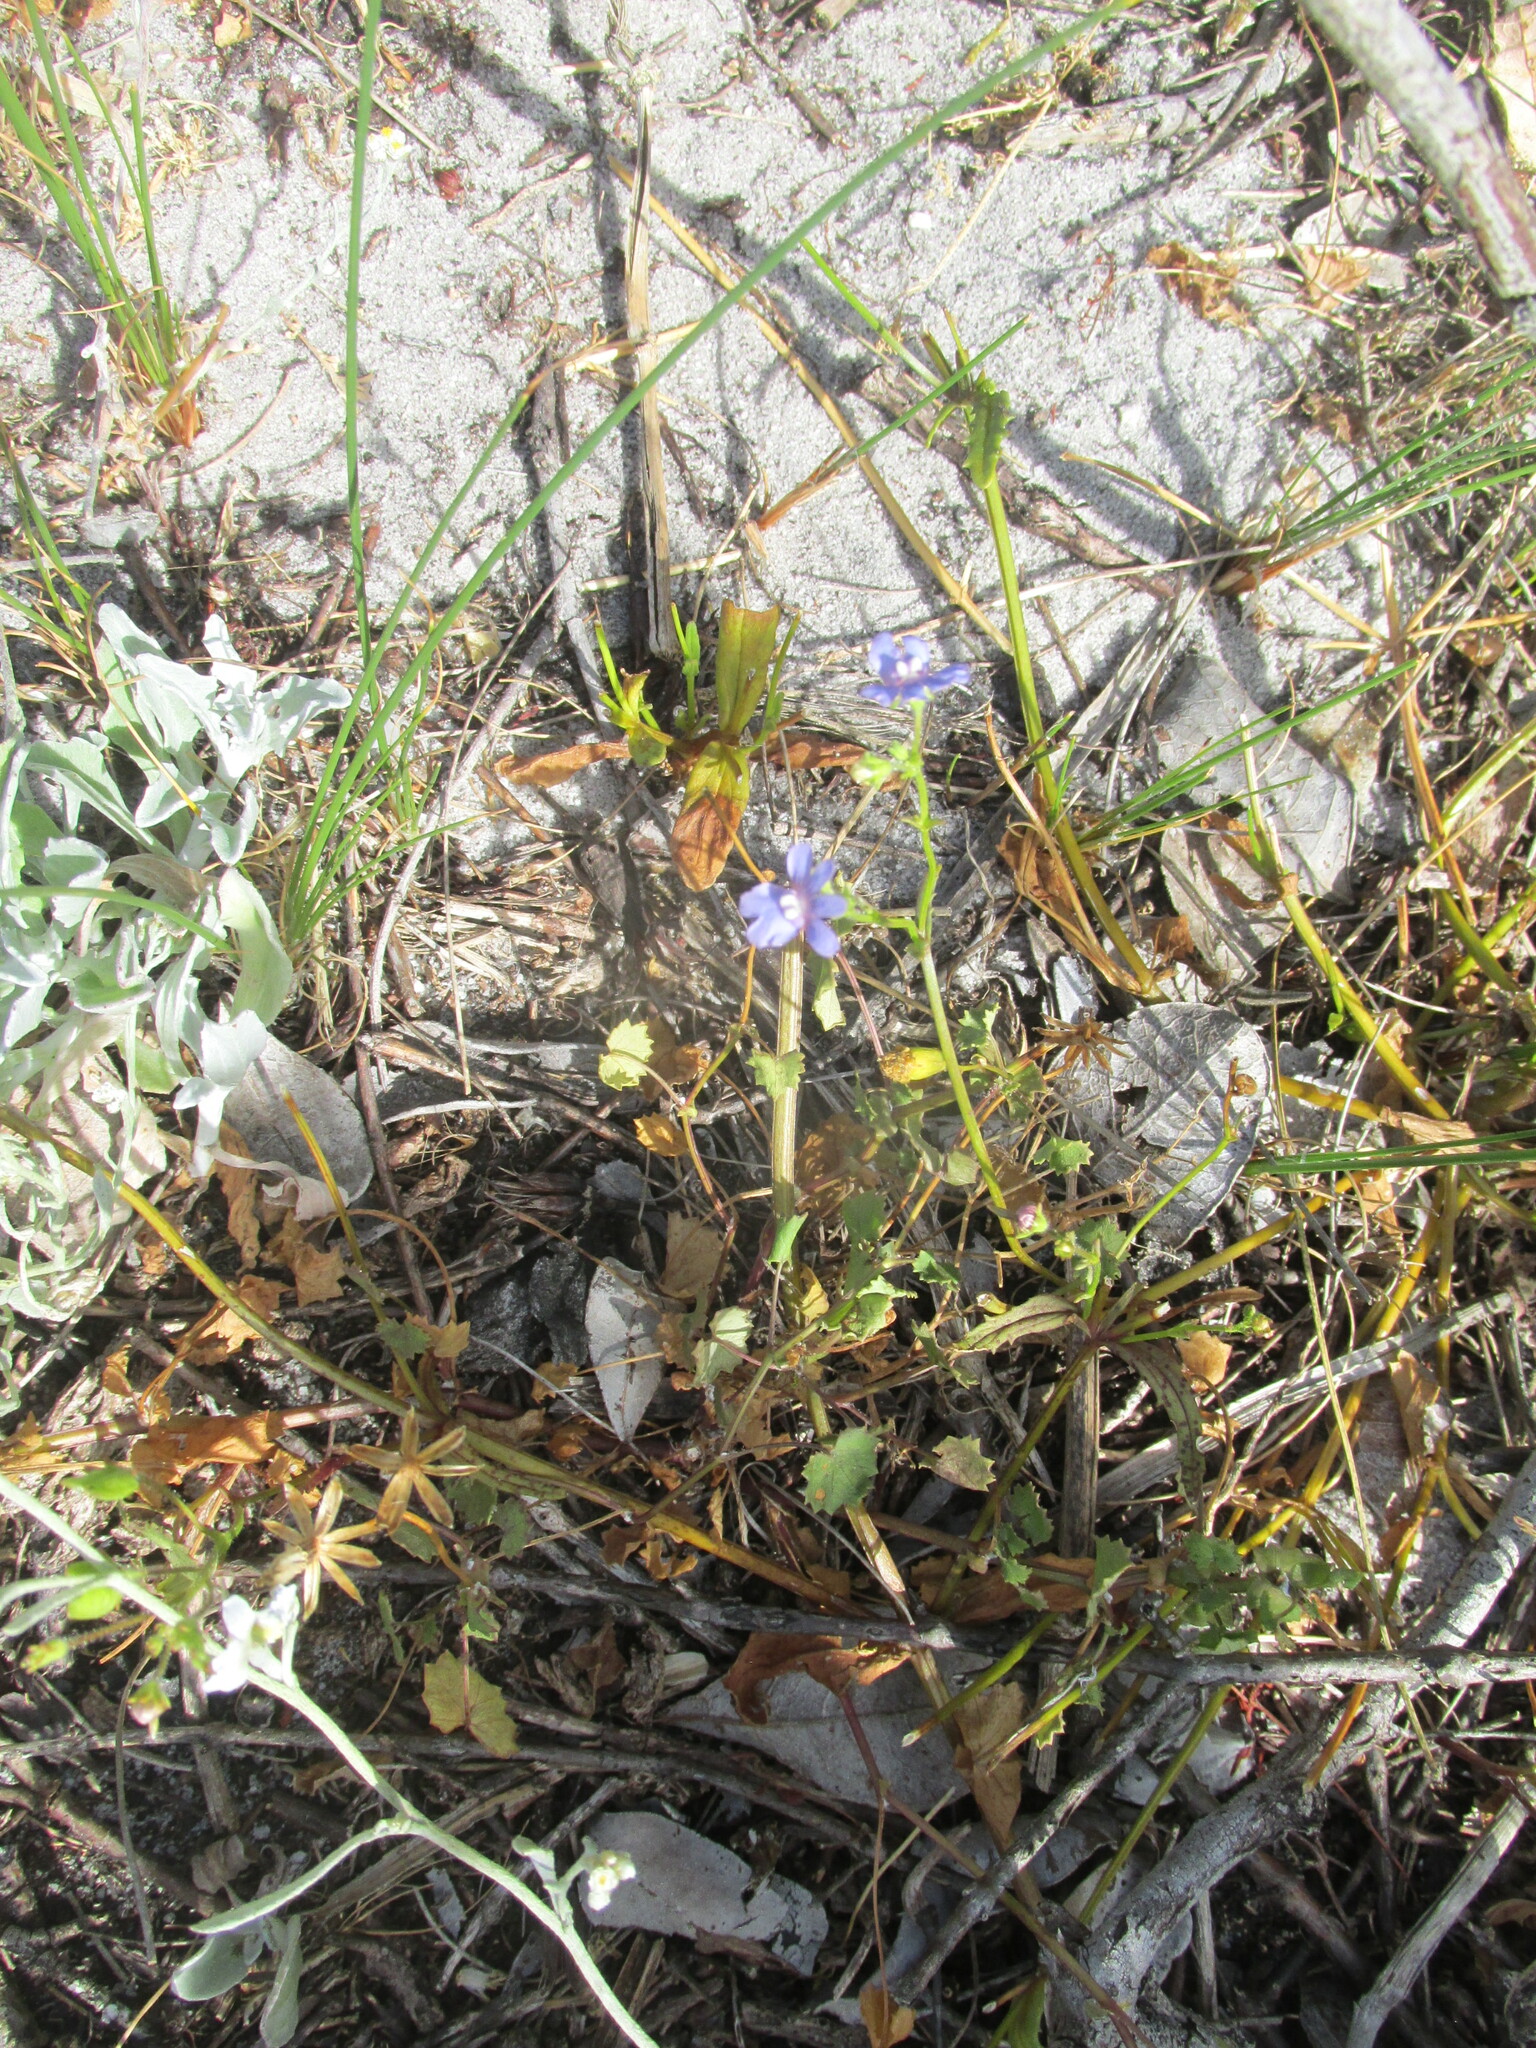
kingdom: Plantae
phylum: Tracheophyta
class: Magnoliopsida
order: Lamiales
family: Scrophulariaceae
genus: Nemesia
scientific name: Nemesia affinis
